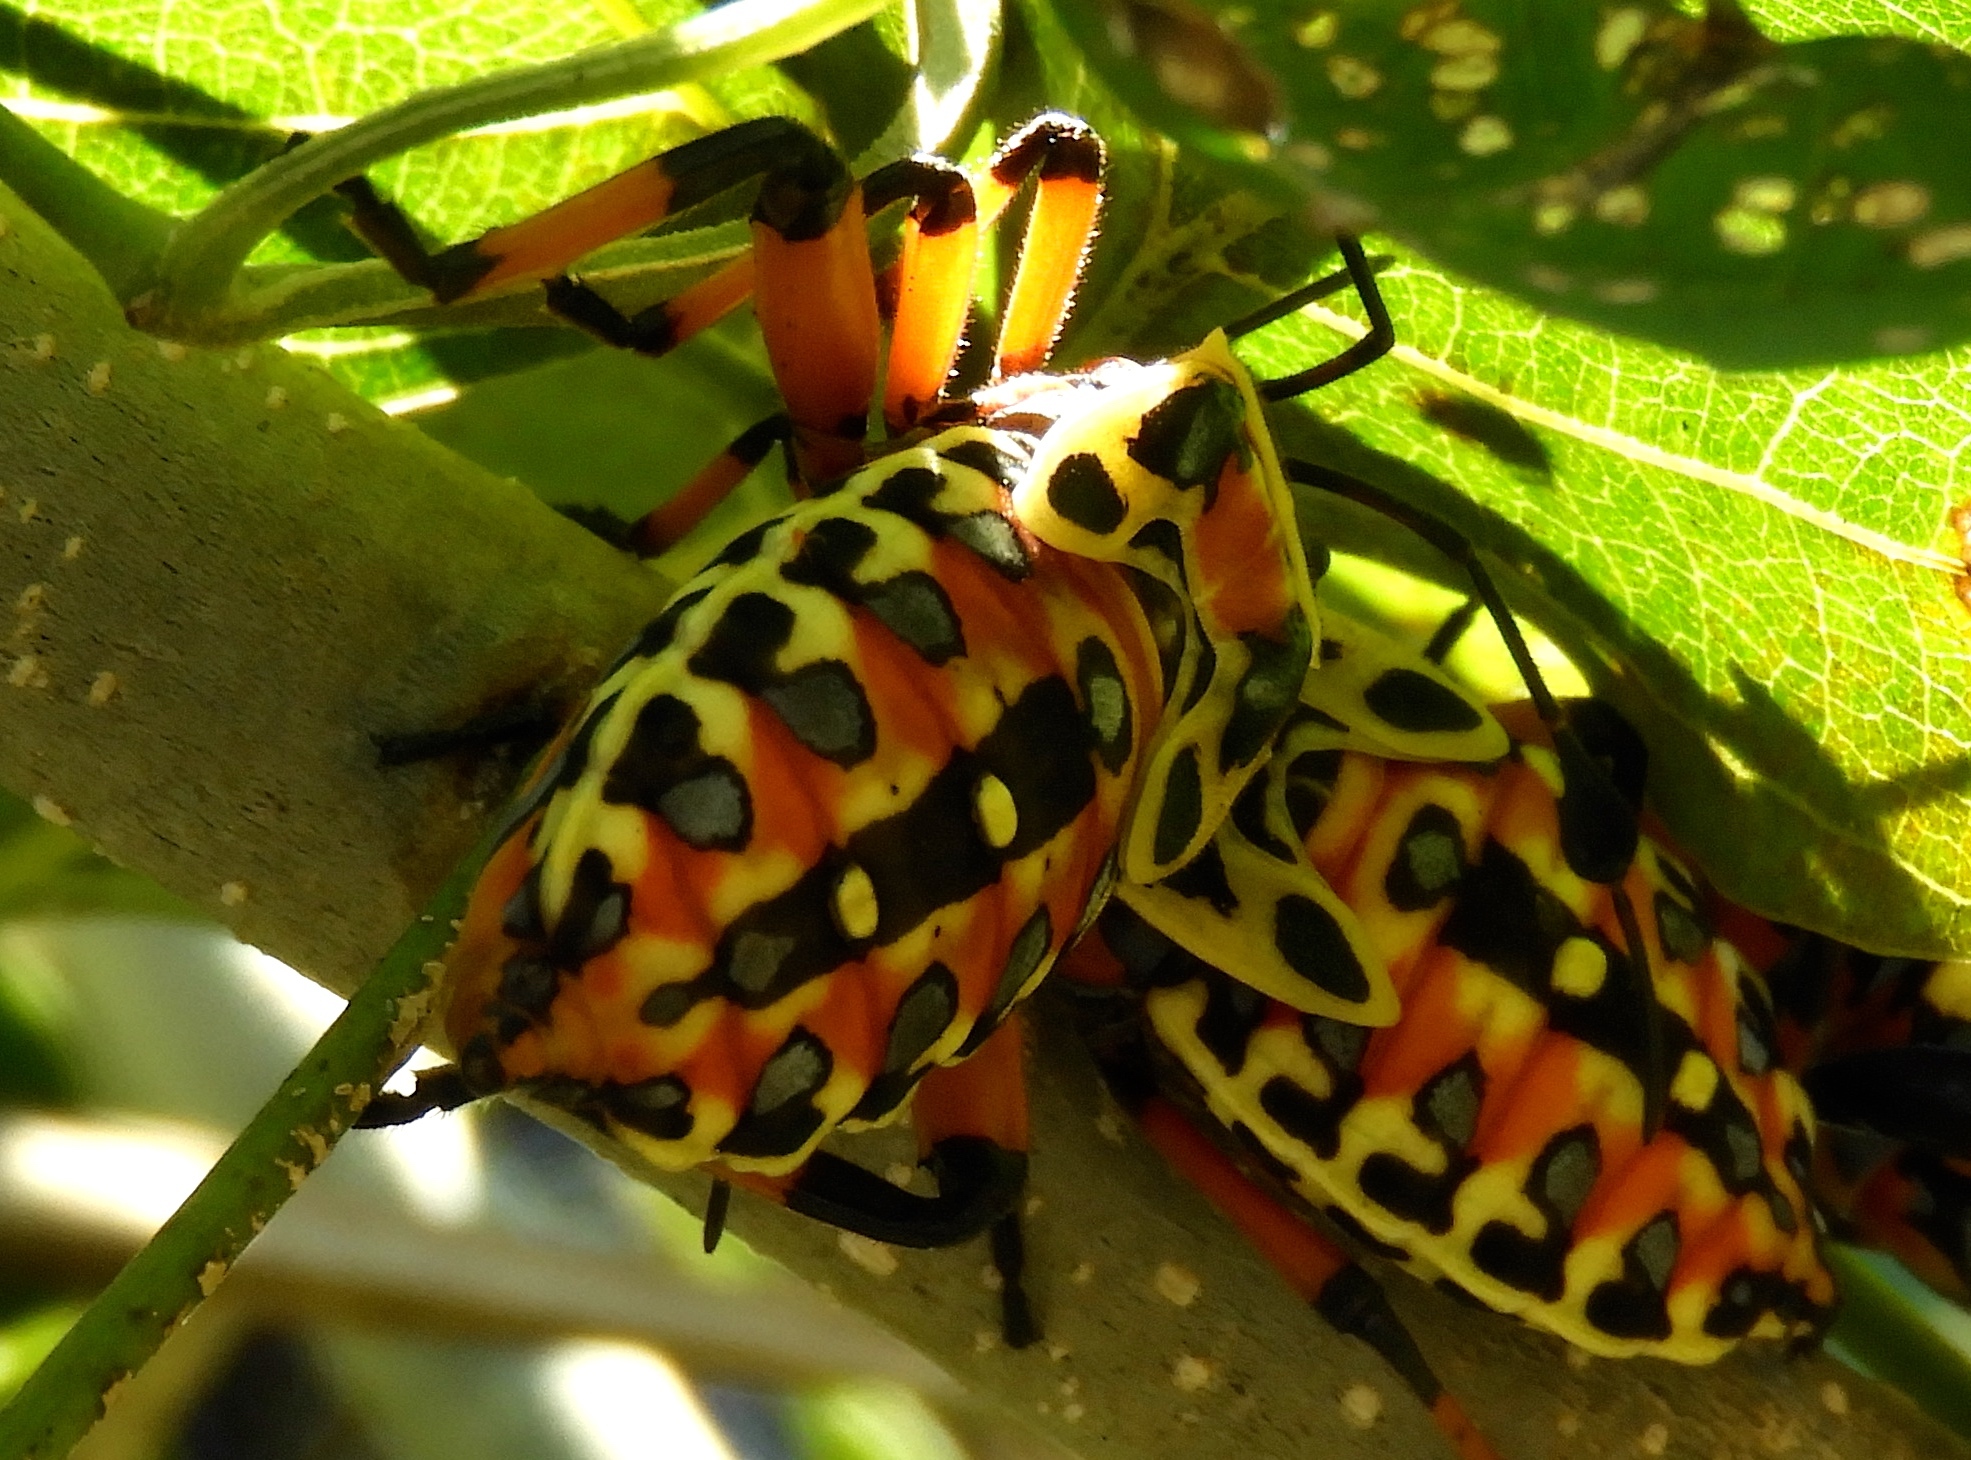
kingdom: Animalia
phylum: Arthropoda
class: Insecta
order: Hemiptera
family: Coreidae
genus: Pachylis
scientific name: Pachylis nervosus
